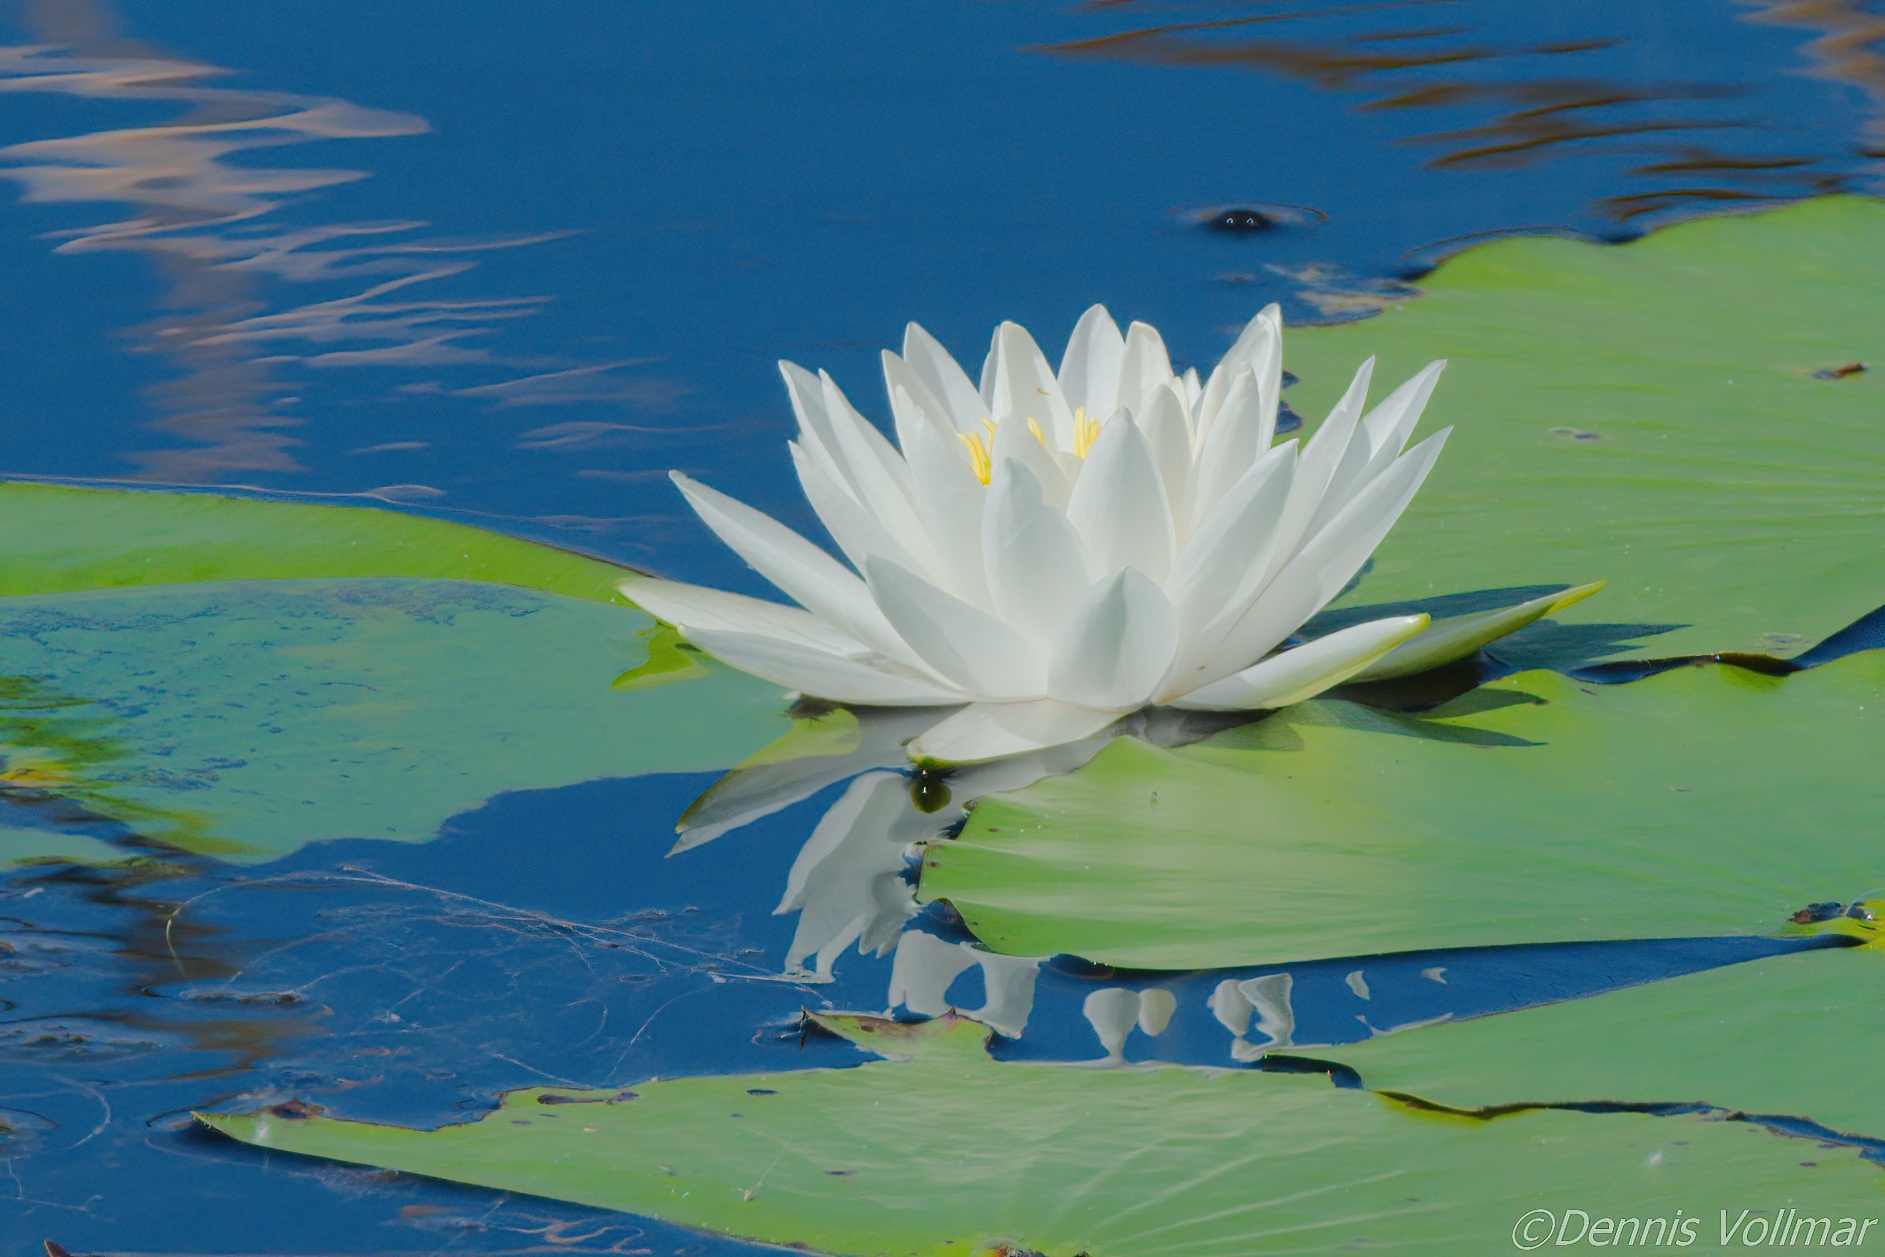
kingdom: Plantae
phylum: Tracheophyta
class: Magnoliopsida
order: Nymphaeales
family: Nymphaeaceae
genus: Nymphaea
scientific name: Nymphaea odorata
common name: Fragrant water-lily
